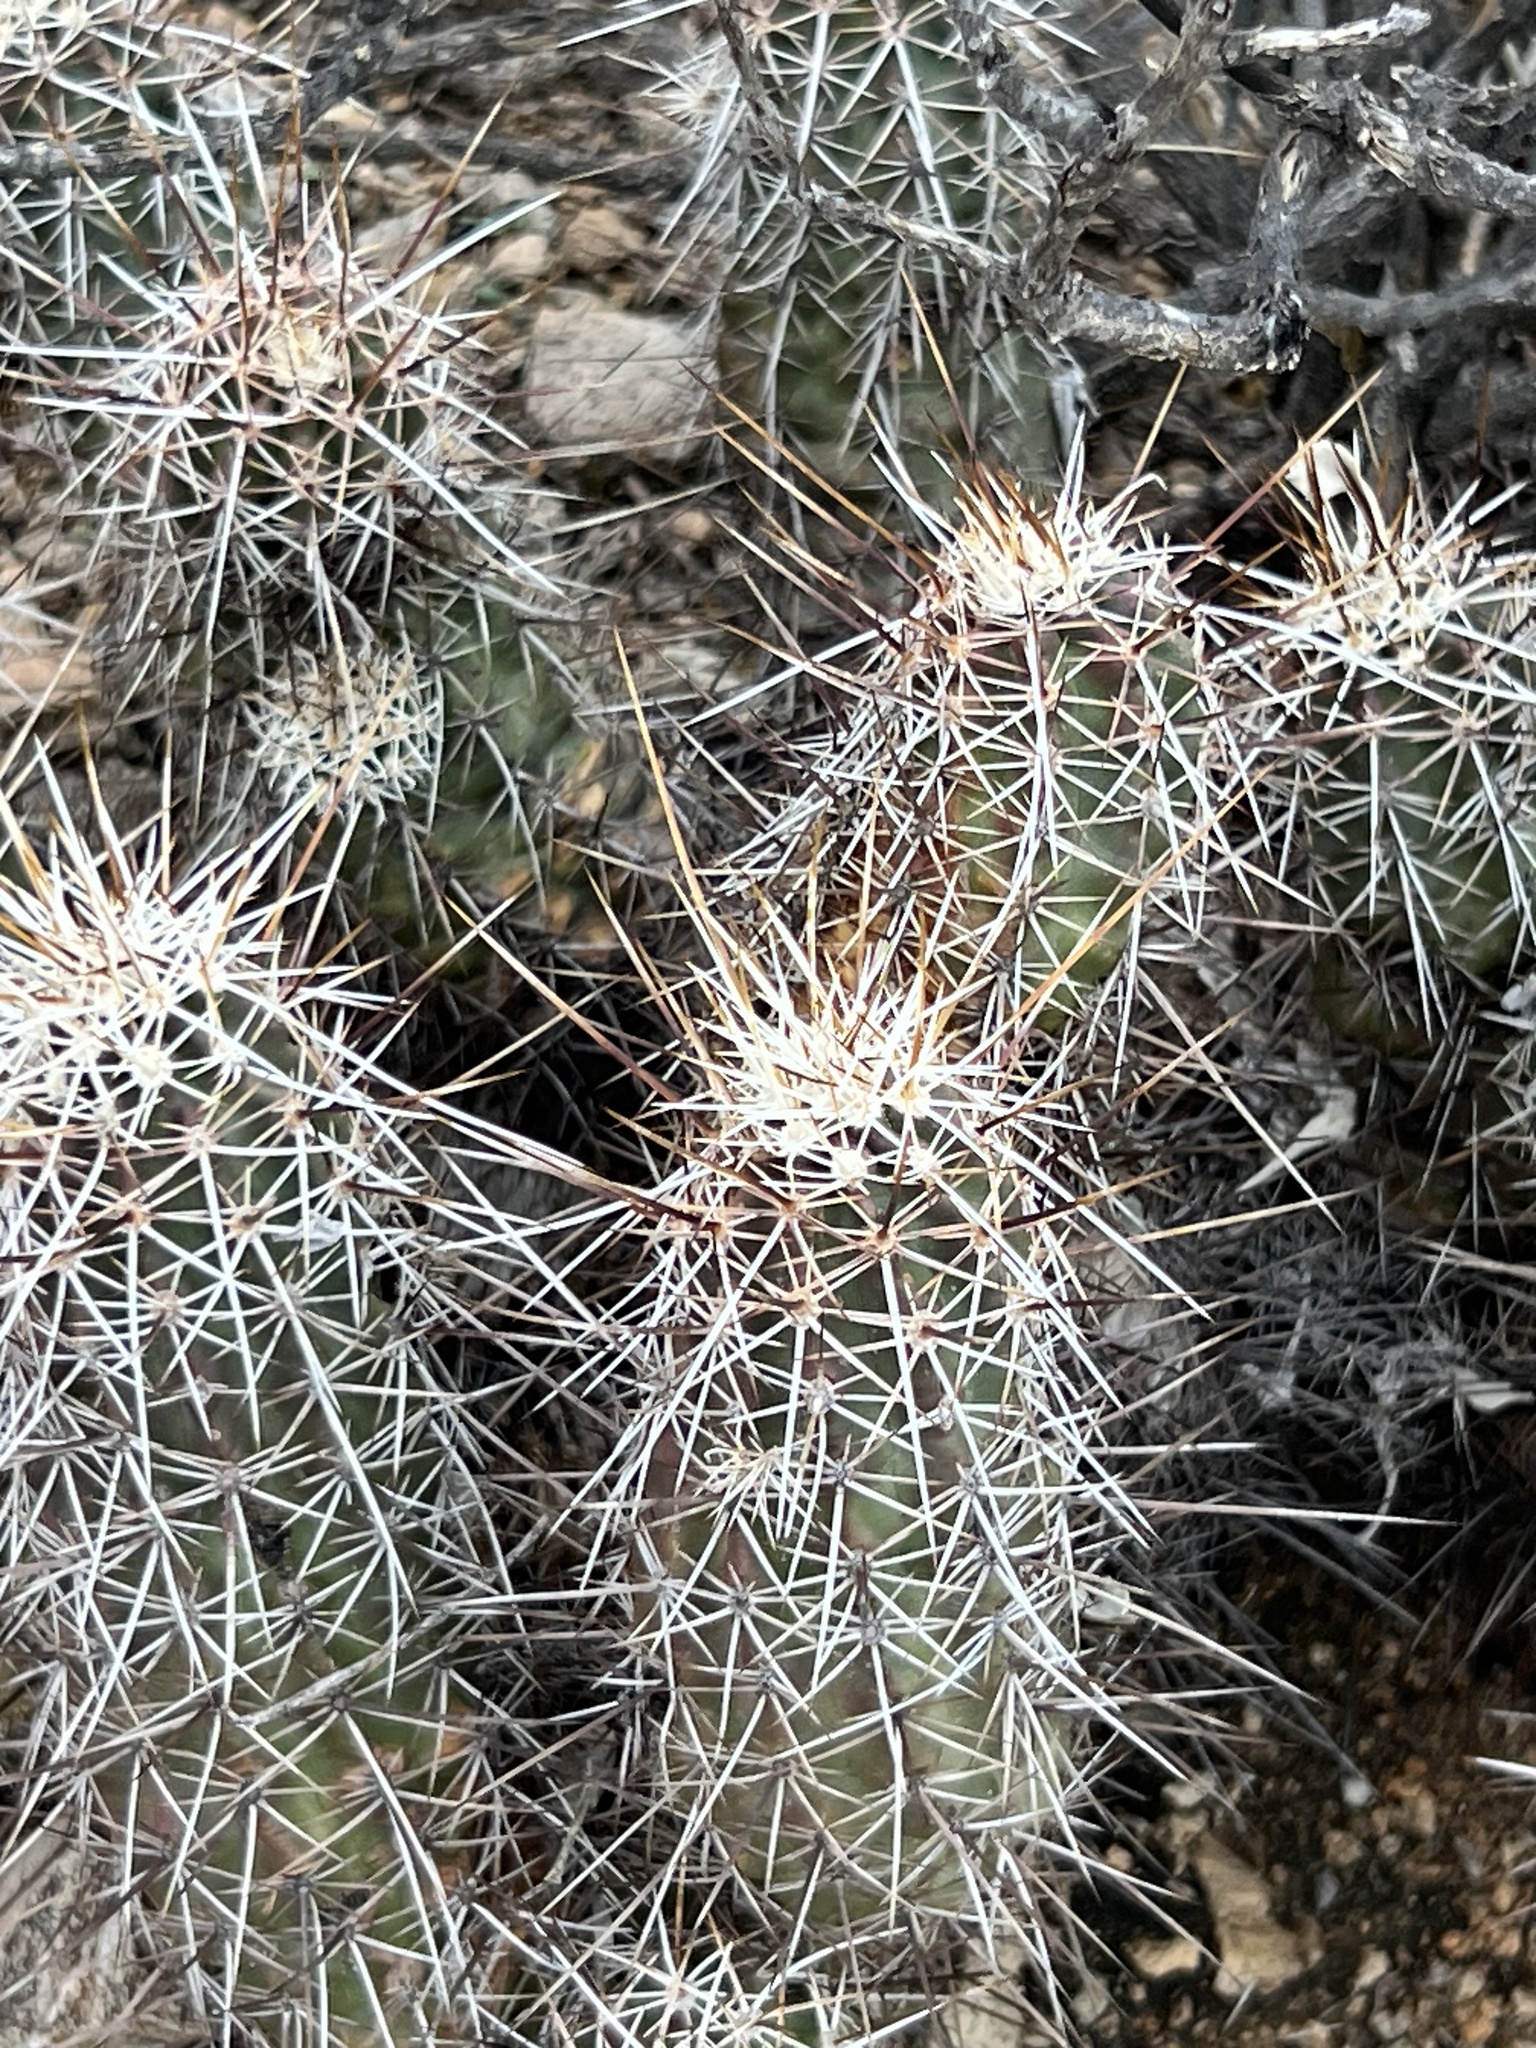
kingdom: Plantae
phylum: Tracheophyta
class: Magnoliopsida
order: Caryophyllales
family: Cactaceae
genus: Echinocereus
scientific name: Echinocereus fasciculatus
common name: Bundle hedgehog
